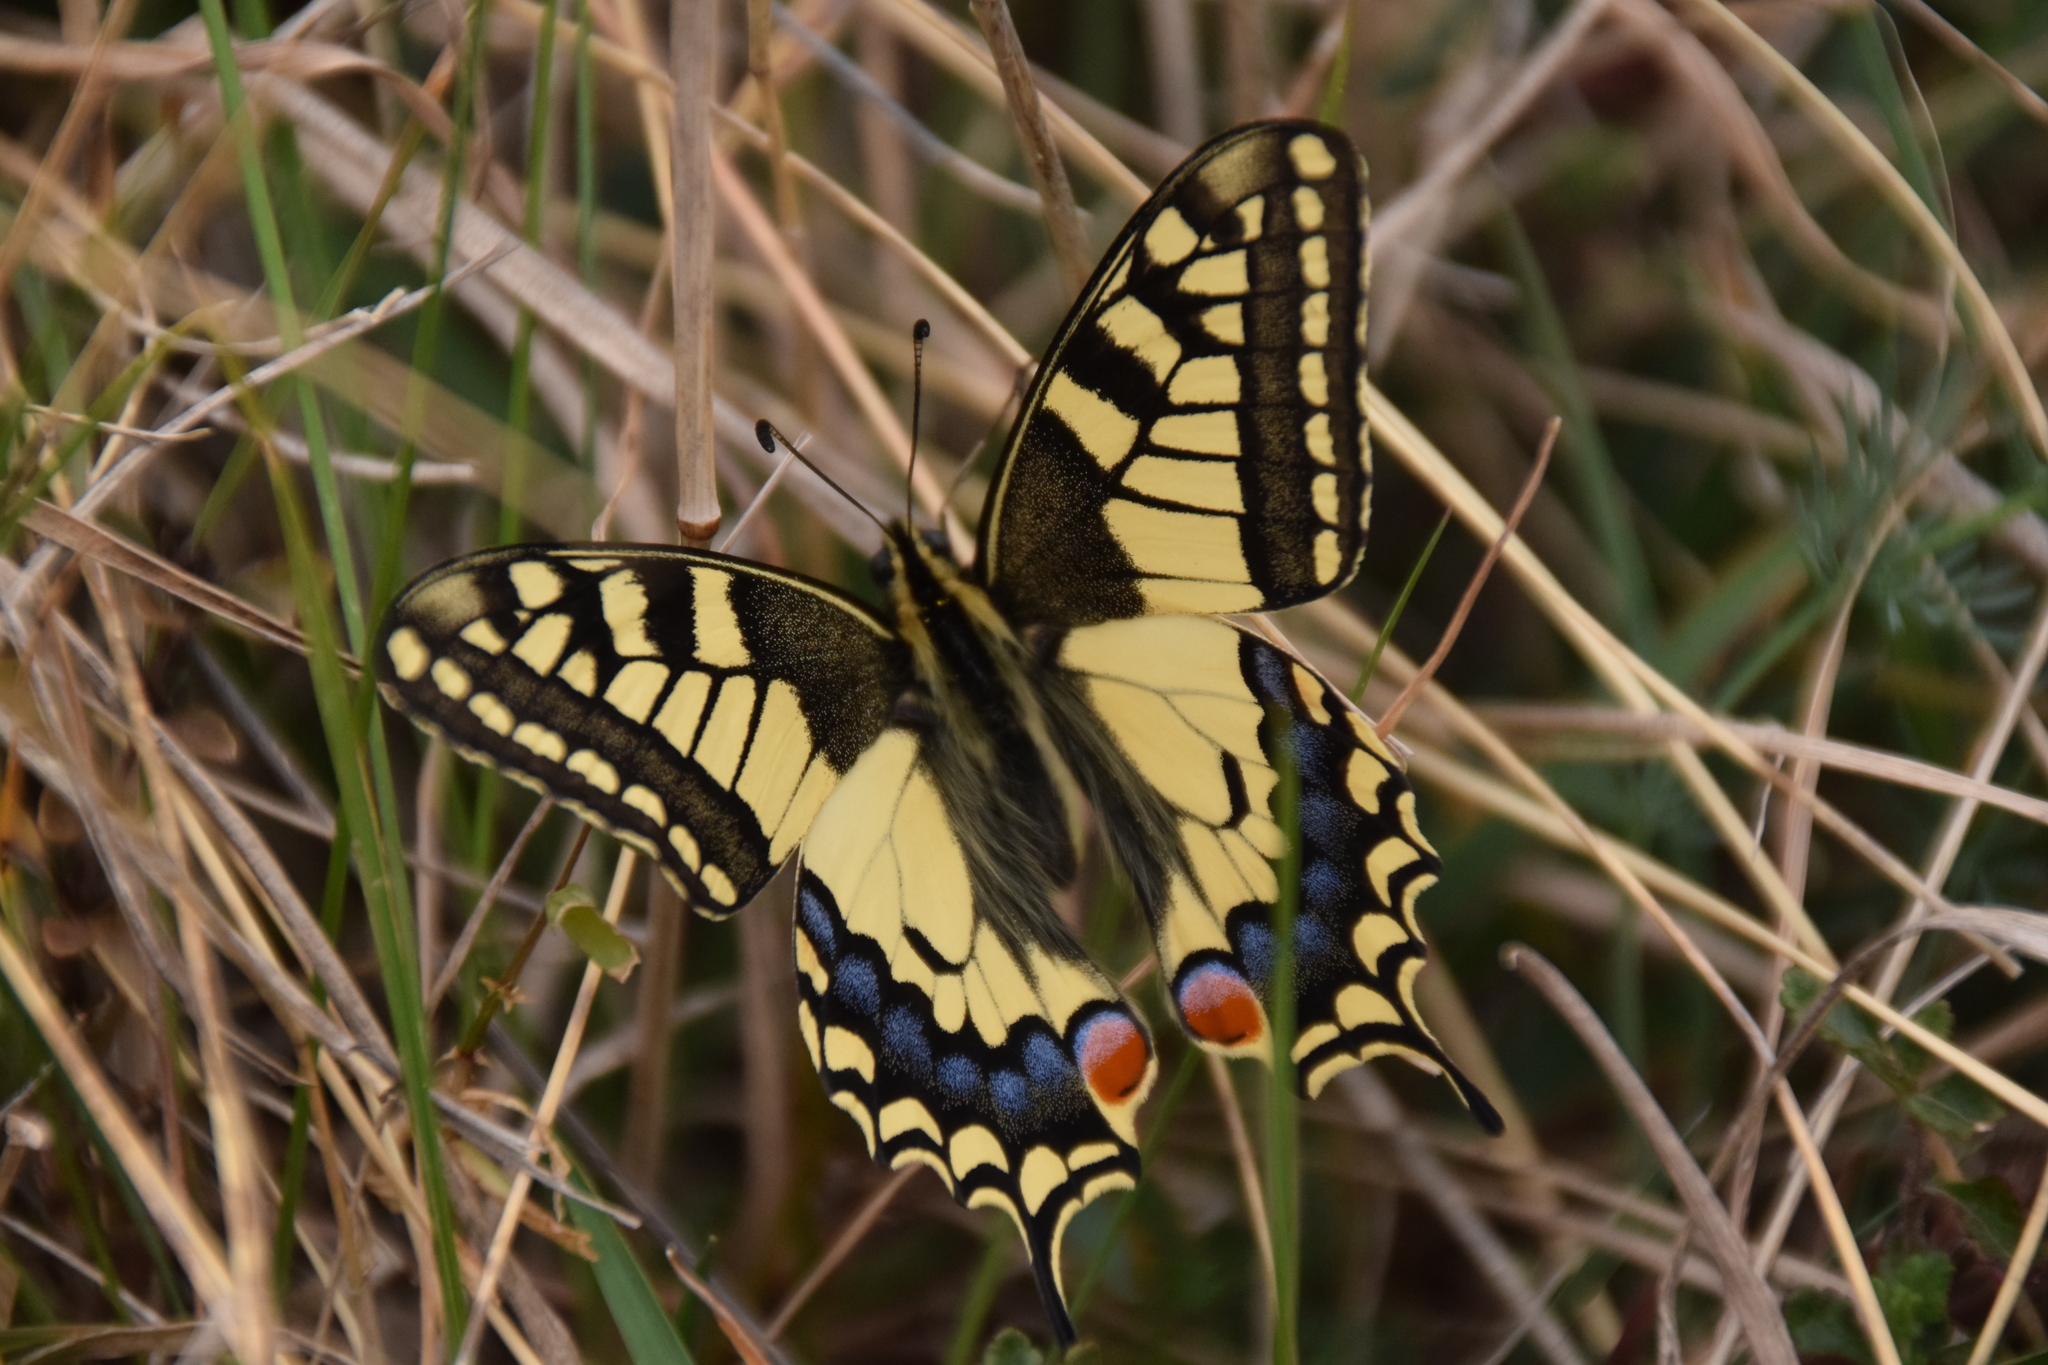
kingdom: Animalia
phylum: Arthropoda
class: Insecta
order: Lepidoptera
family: Papilionidae
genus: Papilio
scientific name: Papilio machaon
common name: Swallowtail
